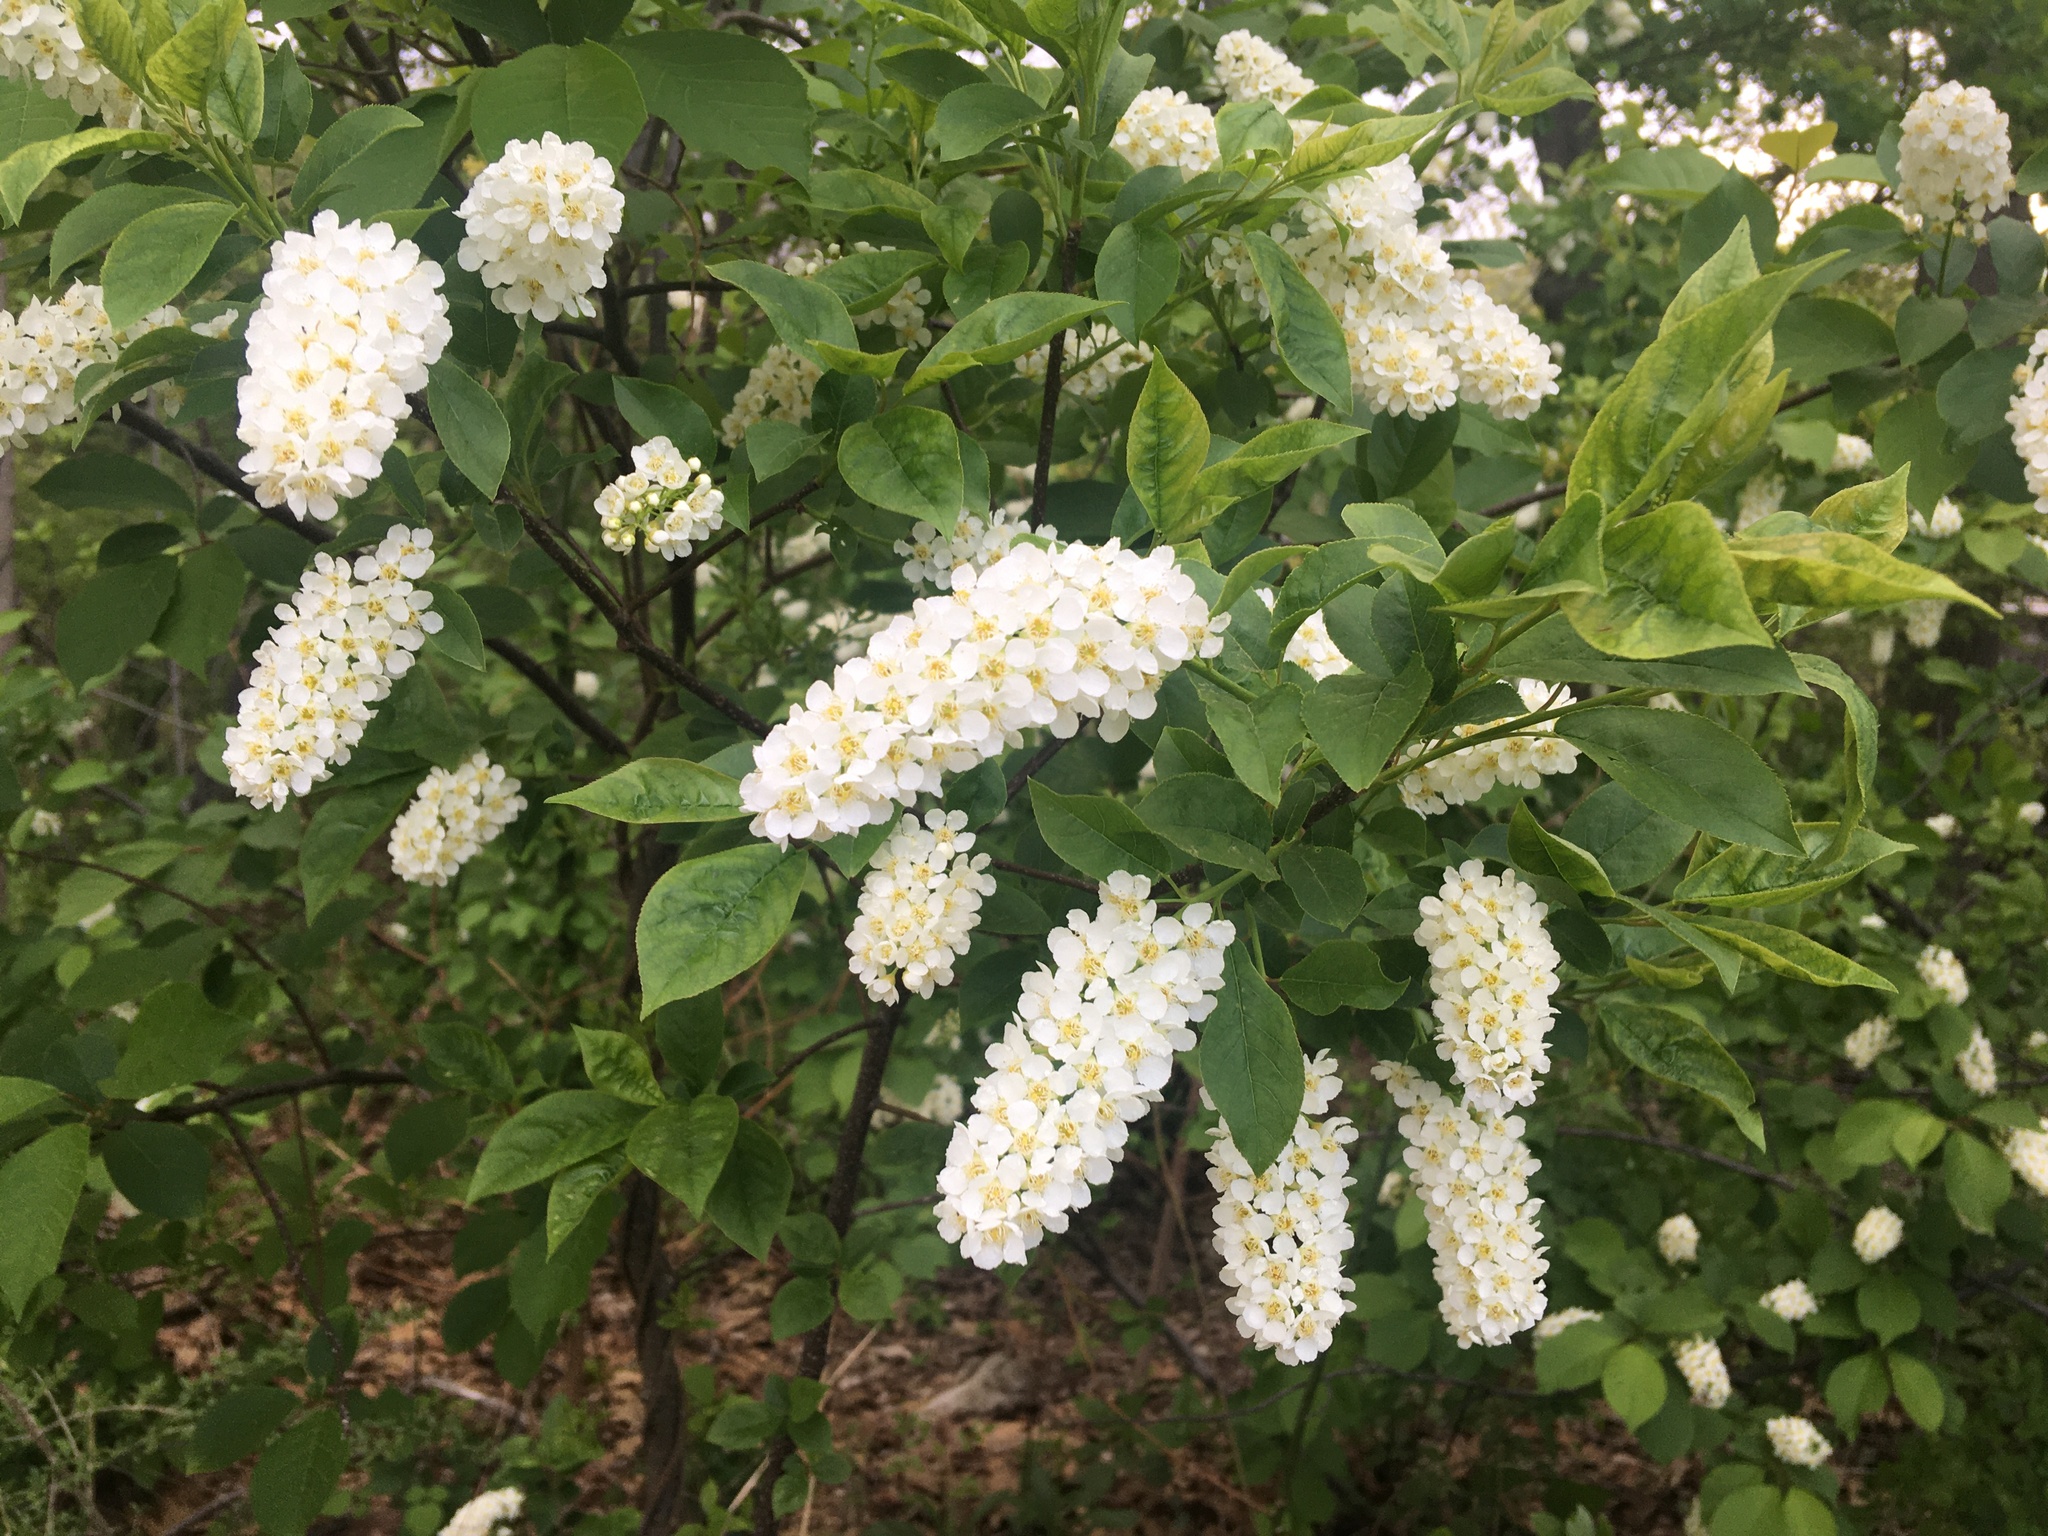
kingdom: Plantae
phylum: Tracheophyta
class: Magnoliopsida
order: Rosales
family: Rosaceae
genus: Prunus
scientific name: Prunus virginiana
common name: Chokecherry
